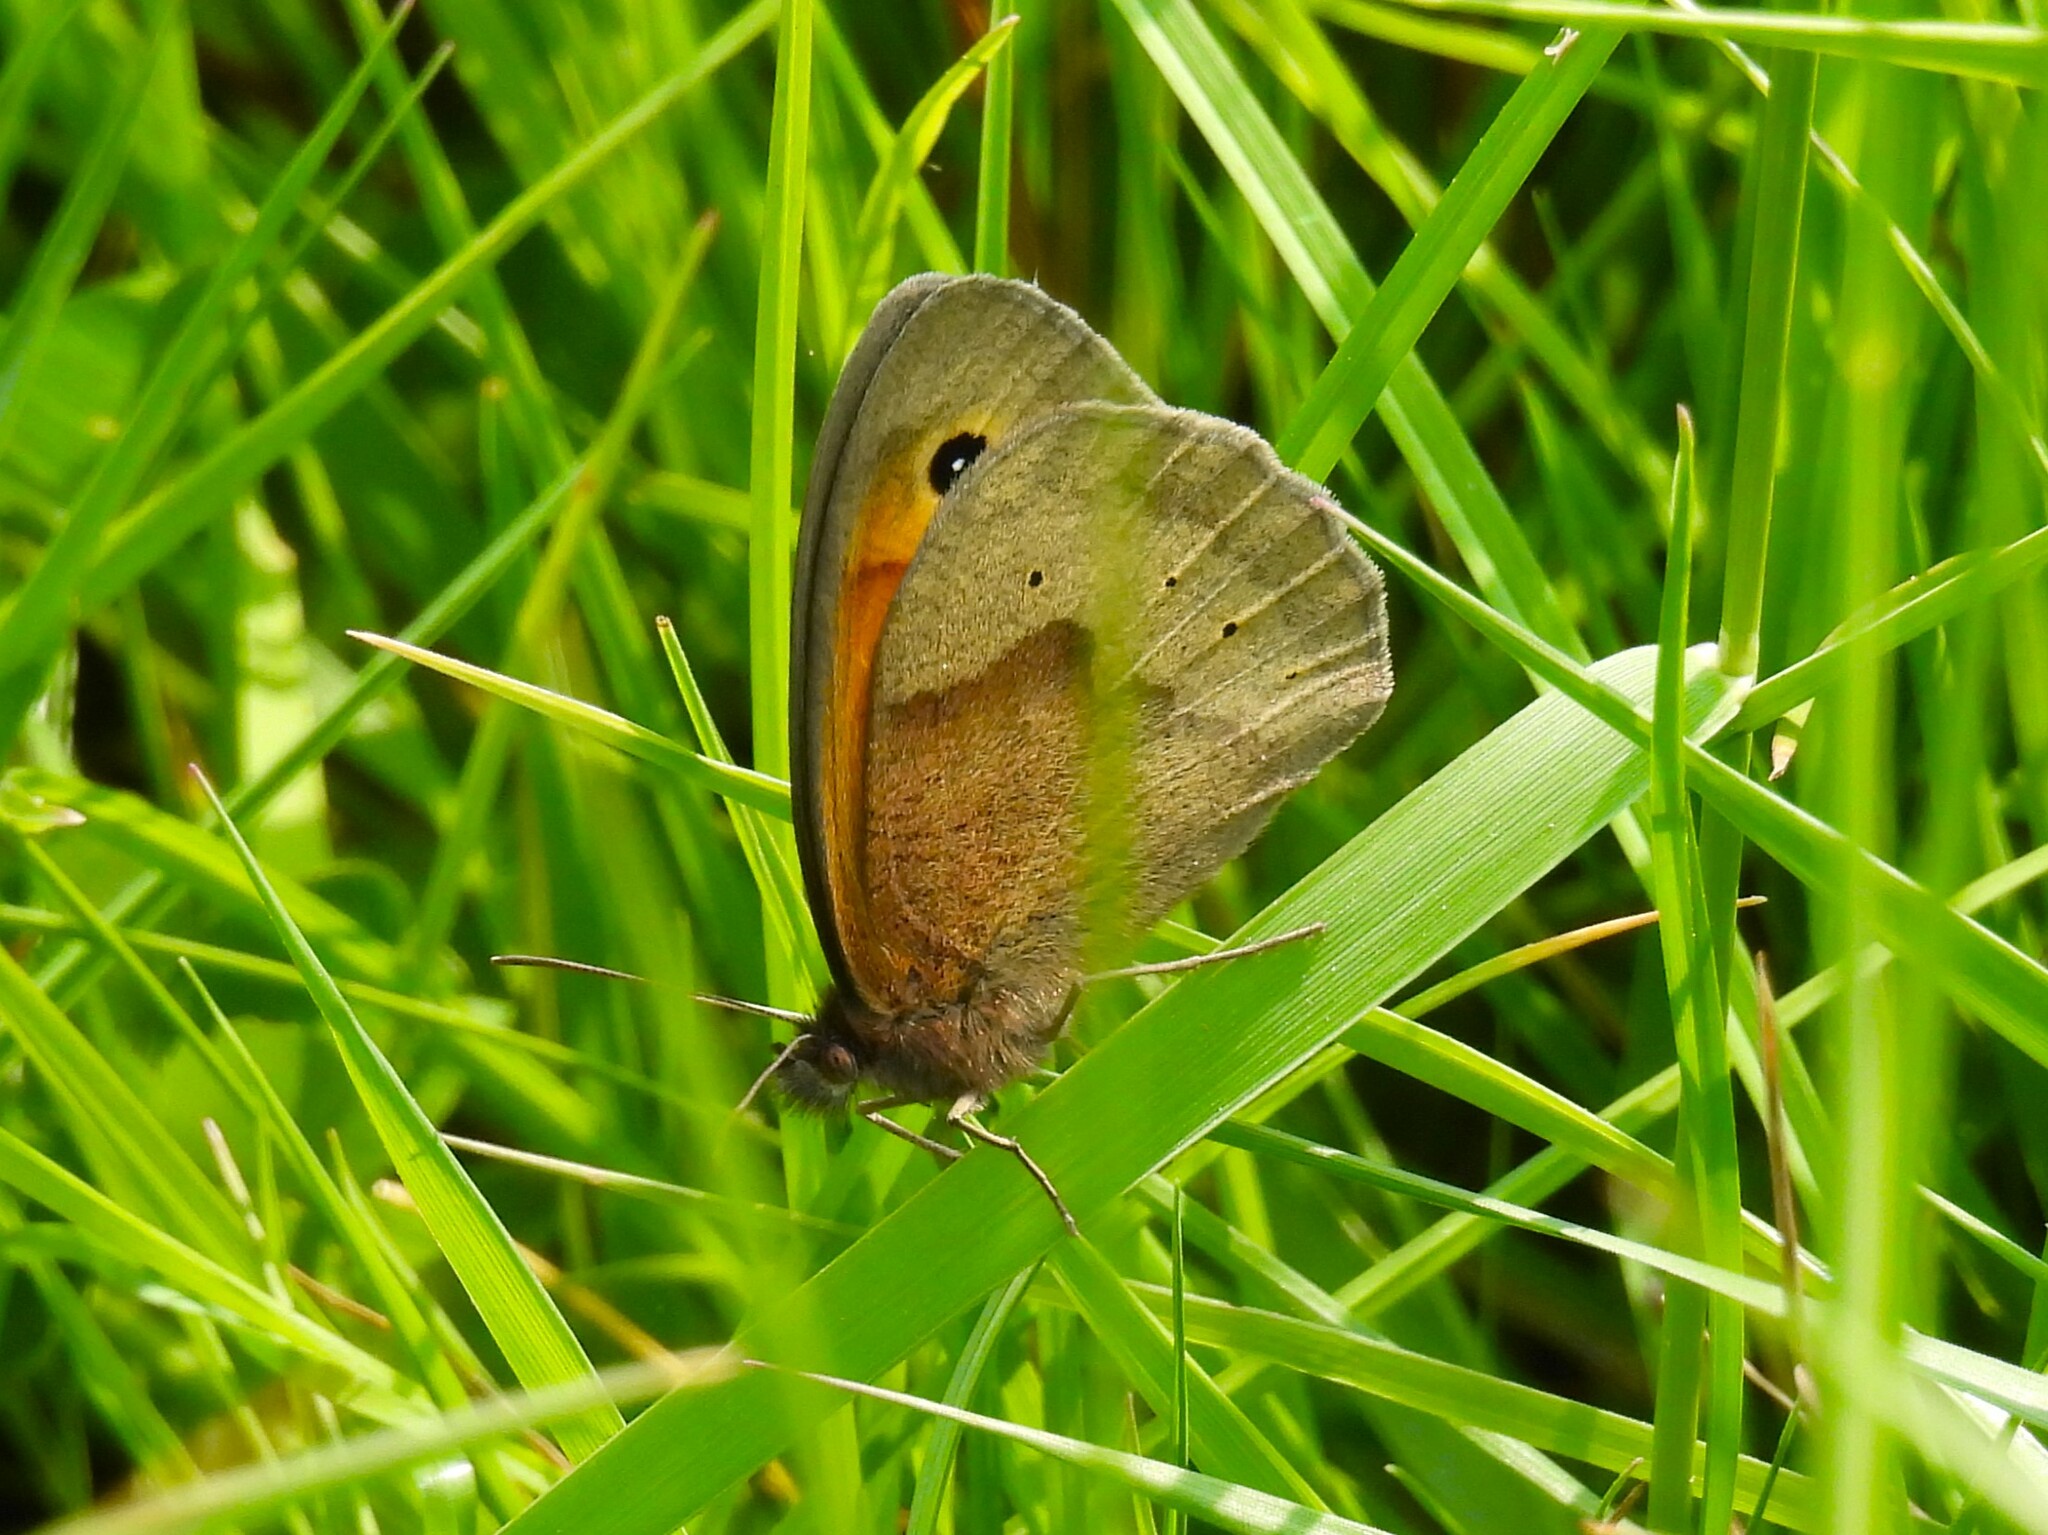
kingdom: Animalia
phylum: Arthropoda
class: Insecta
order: Lepidoptera
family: Nymphalidae
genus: Maniola
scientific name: Maniola jurtina
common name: Meadow brown
